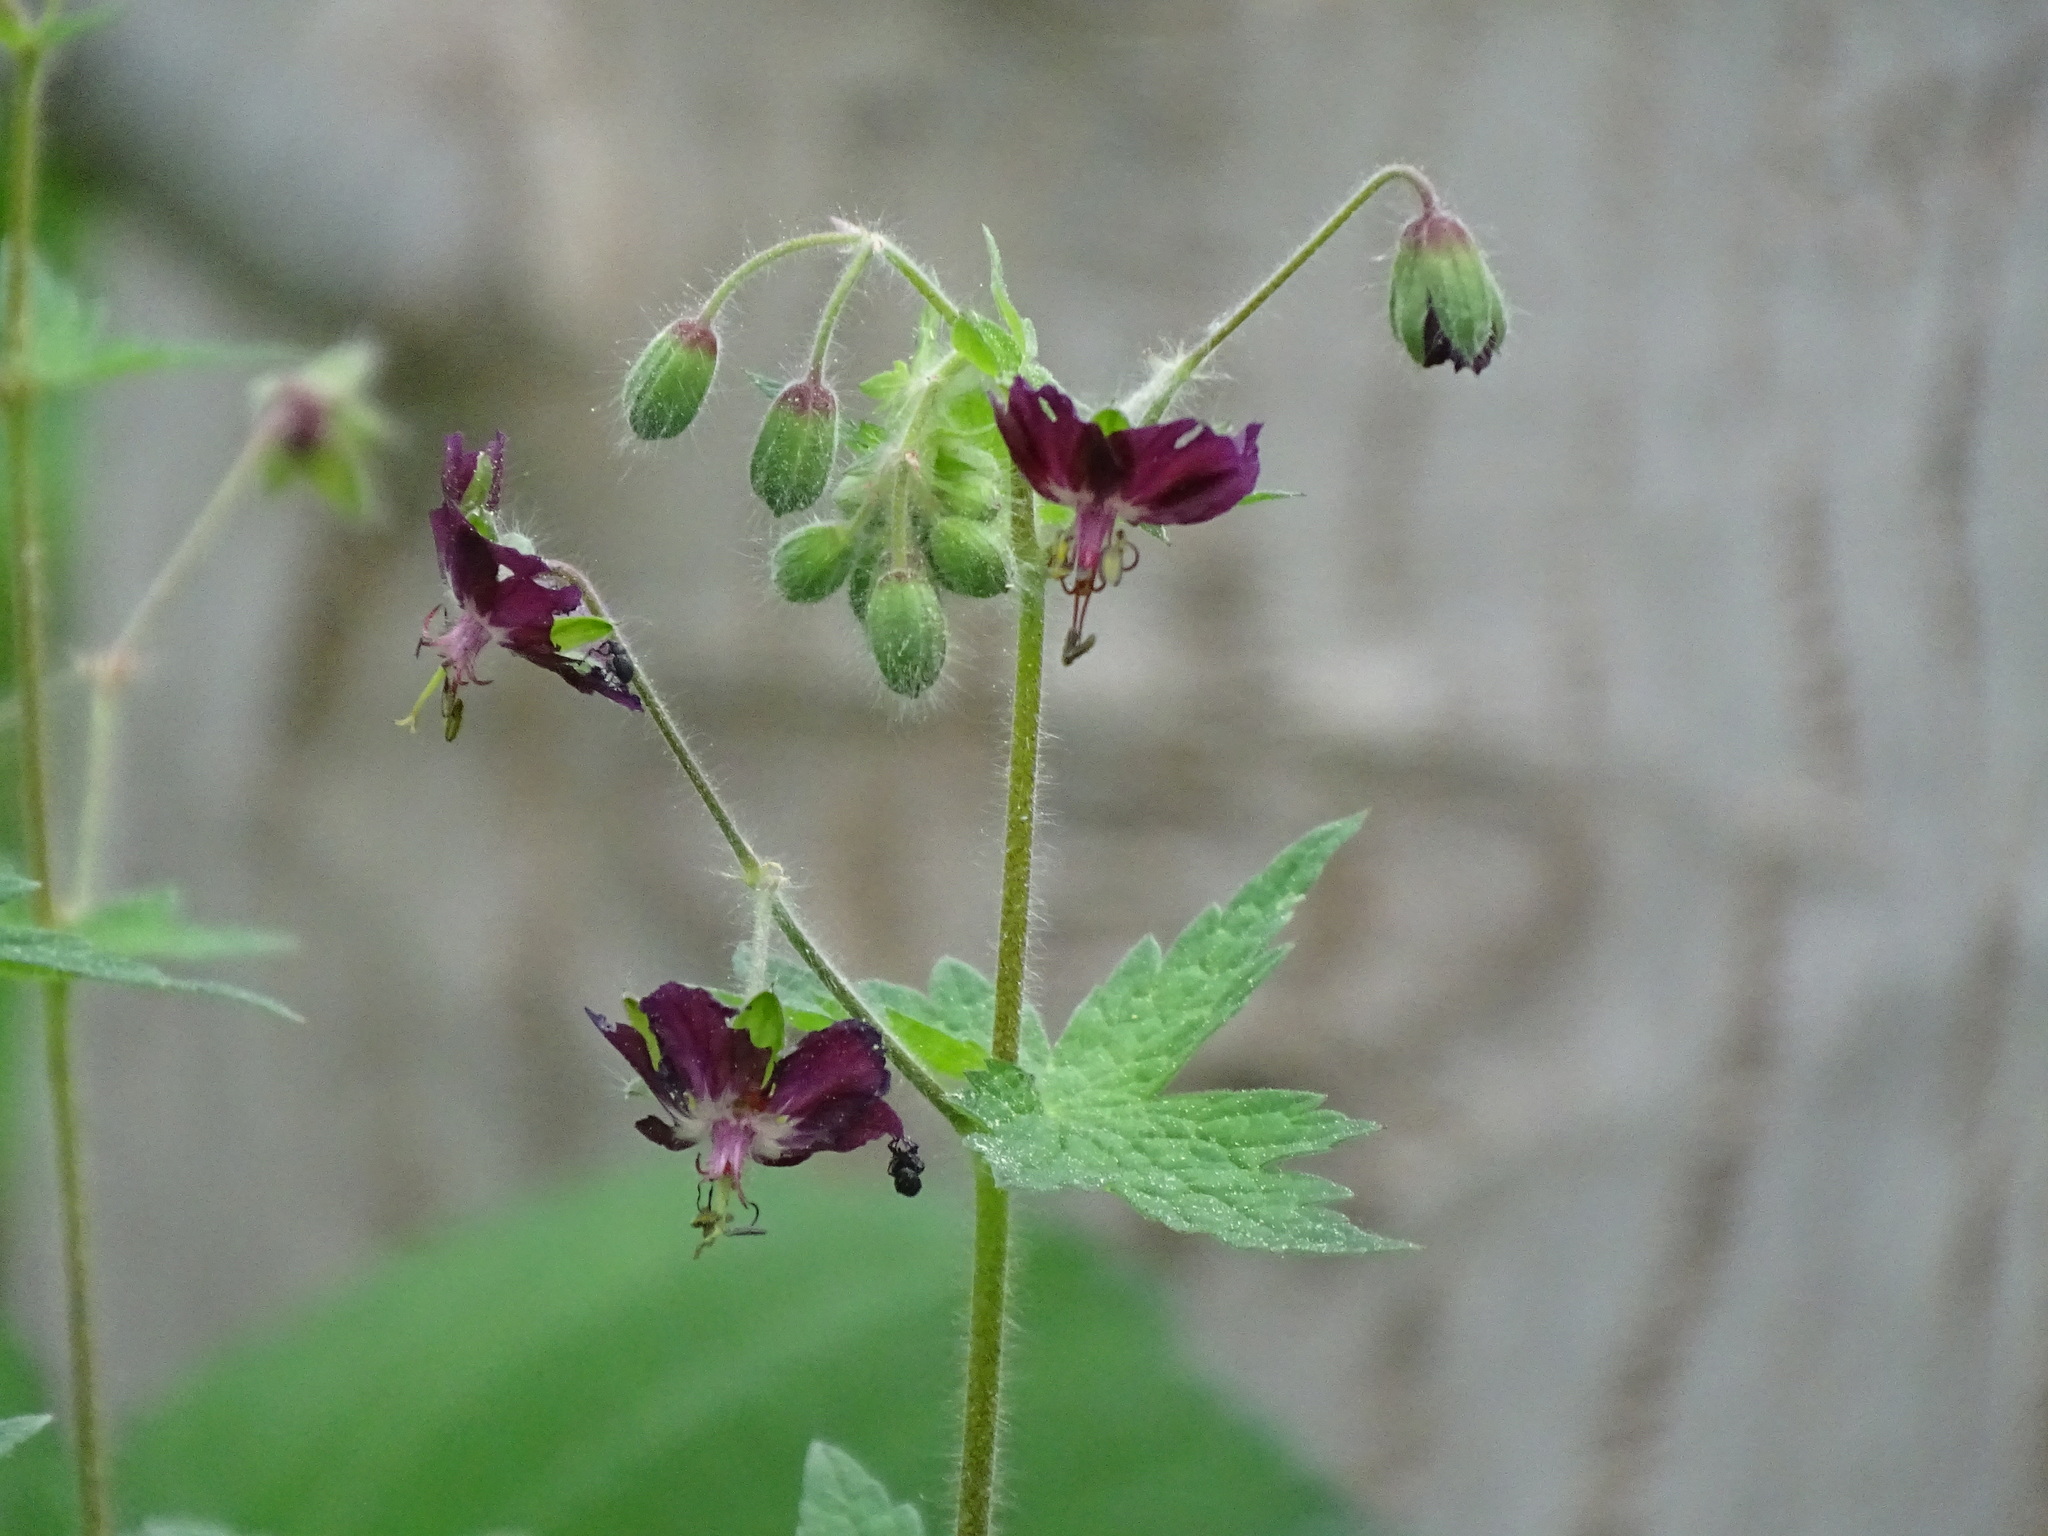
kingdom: Plantae
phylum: Tracheophyta
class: Magnoliopsida
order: Geraniales
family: Geraniaceae
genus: Geranium
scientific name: Geranium phaeum
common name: Dusky crane's-bill
